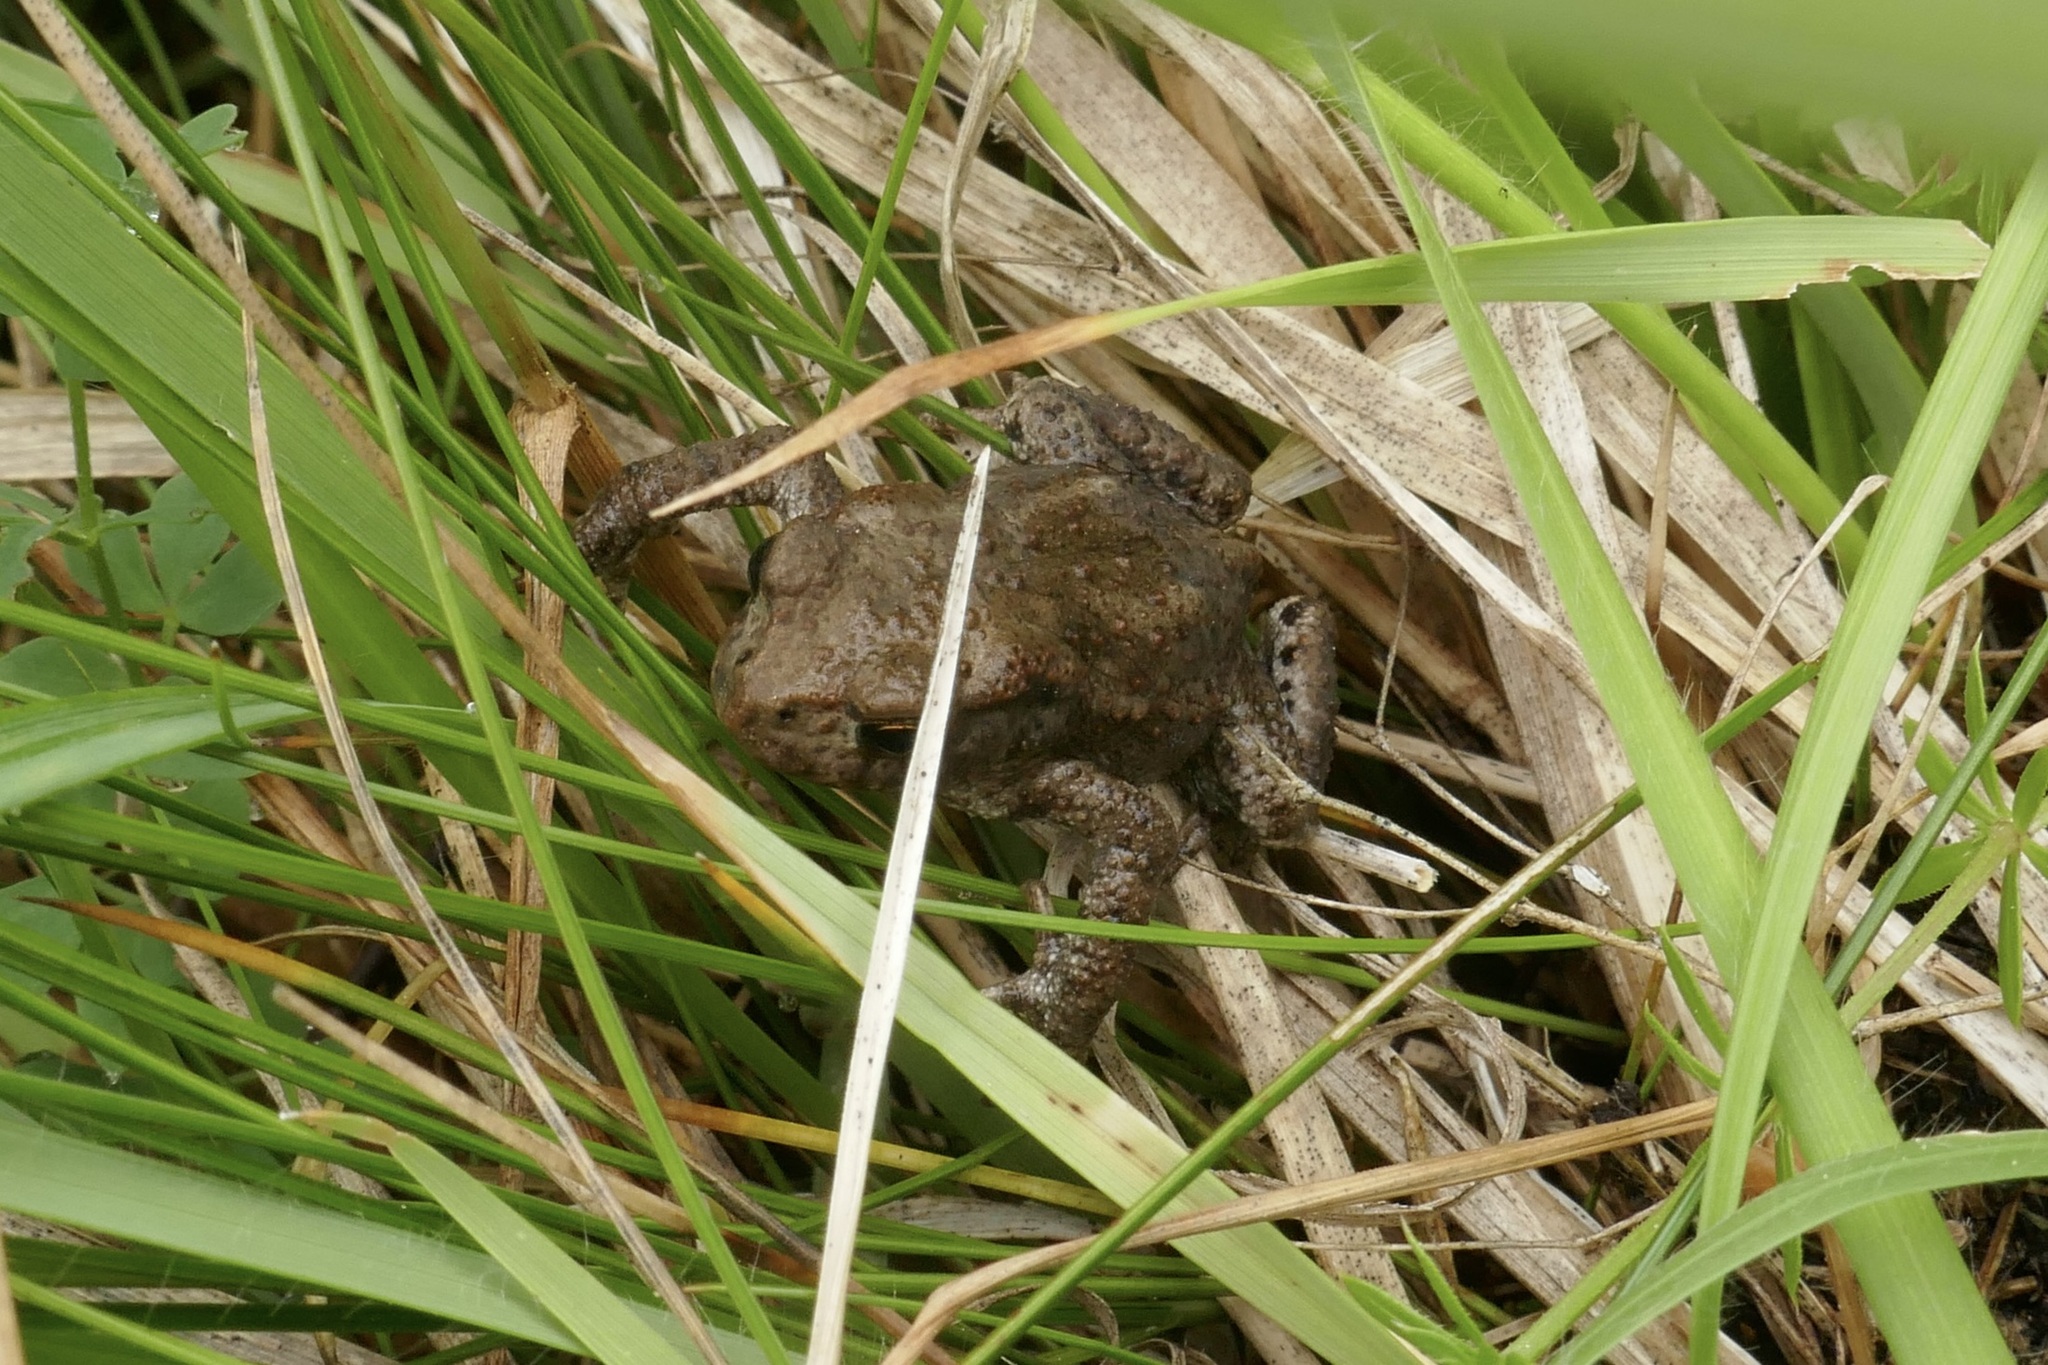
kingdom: Animalia
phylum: Chordata
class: Amphibia
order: Anura
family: Bufonidae
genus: Bufo
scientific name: Bufo bufo
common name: Common toad
